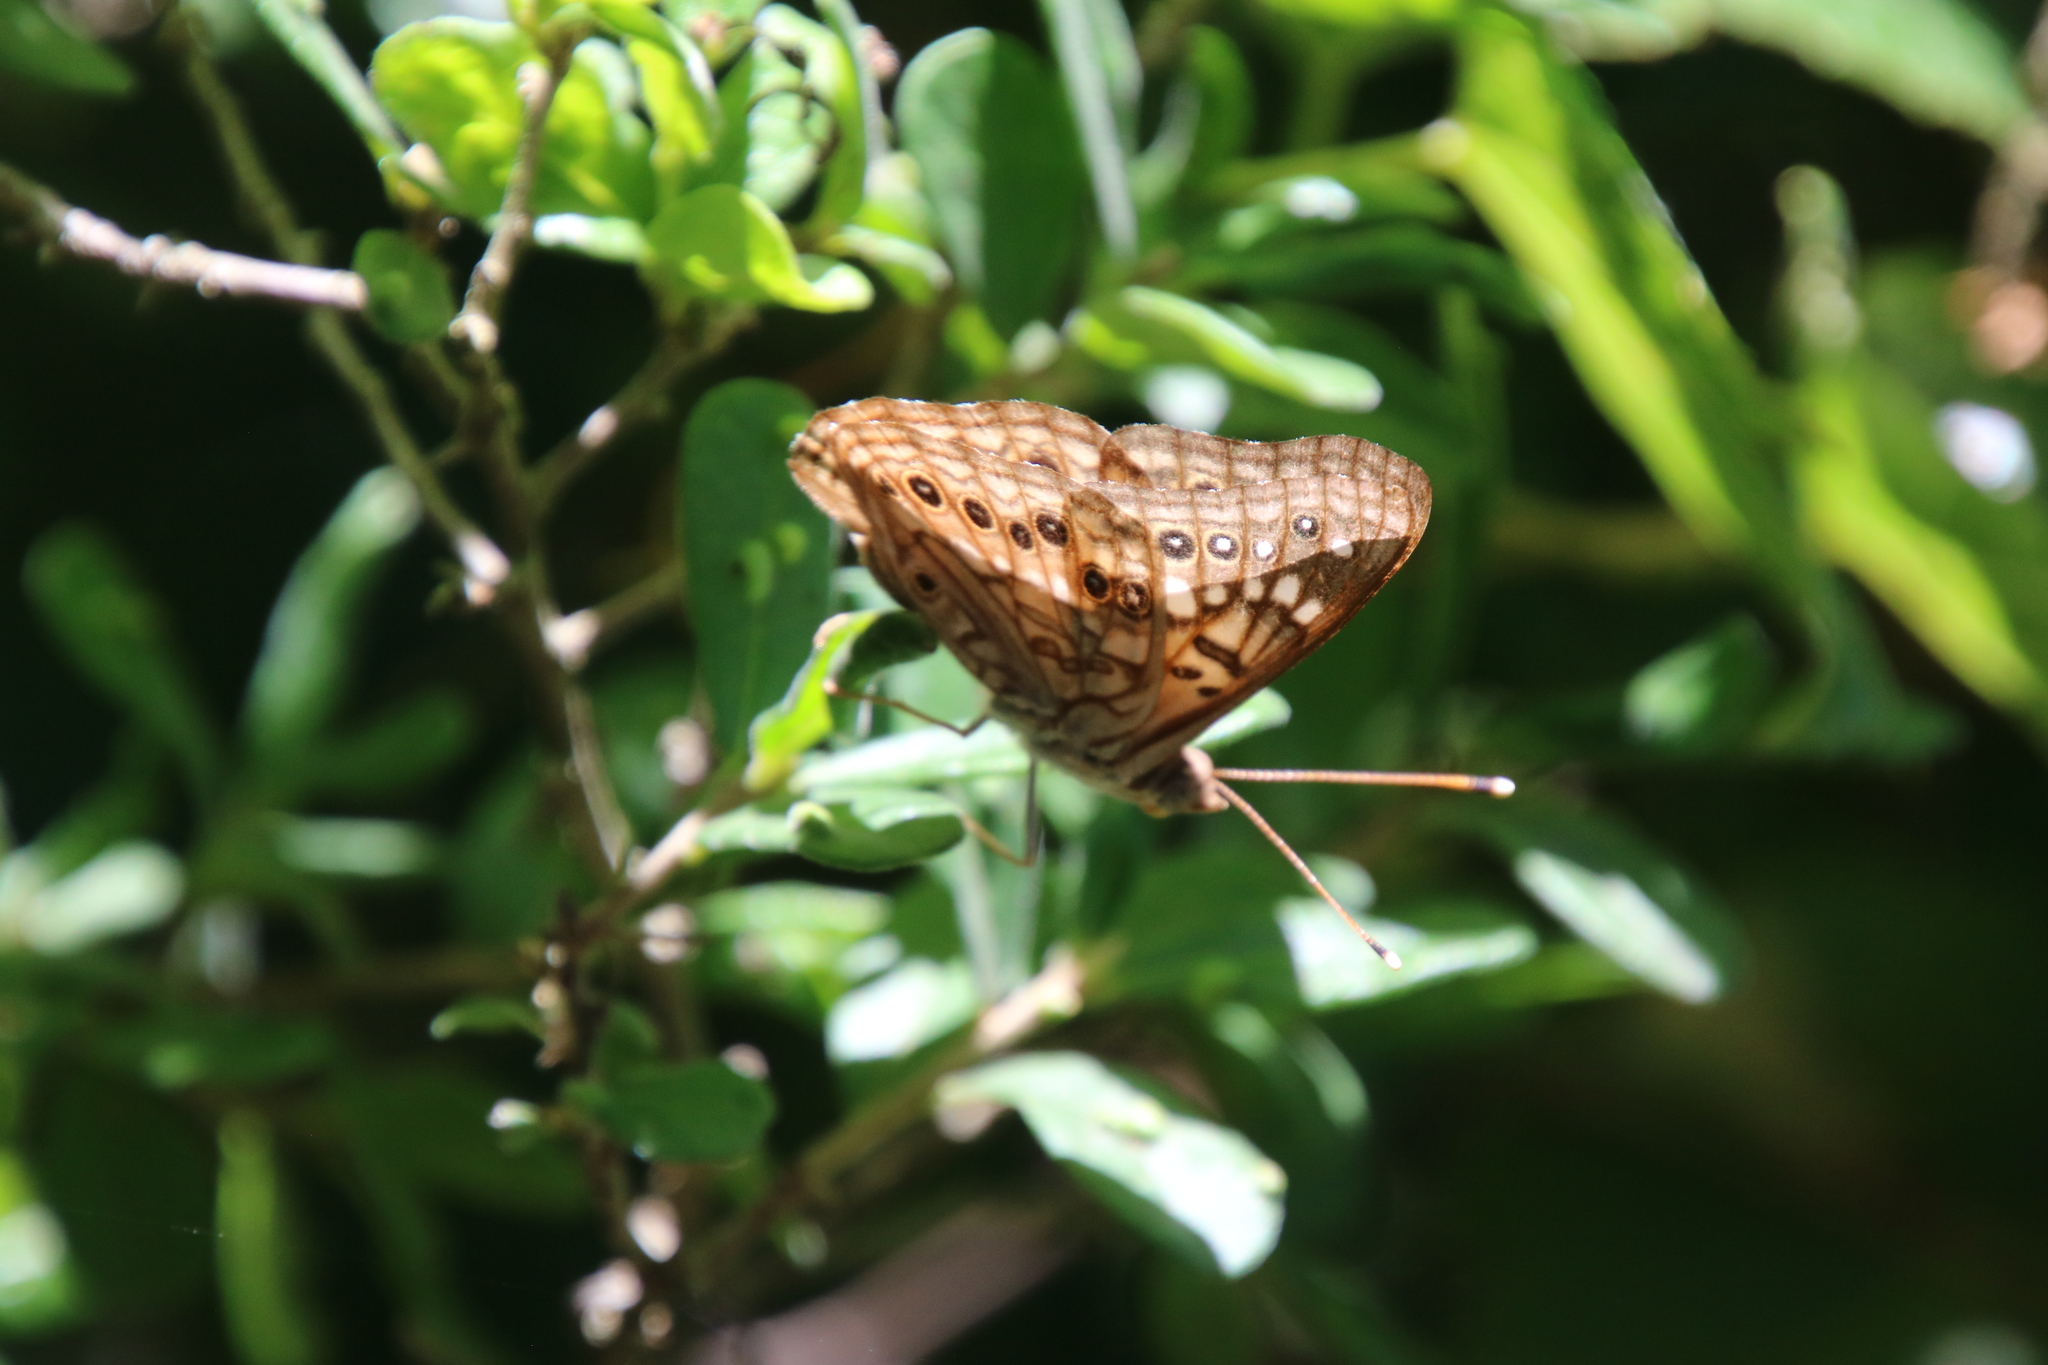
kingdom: Animalia
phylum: Arthropoda
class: Insecta
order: Lepidoptera
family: Nymphalidae
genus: Asterocampa
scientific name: Asterocampa celtis
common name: Hackberry emperor
